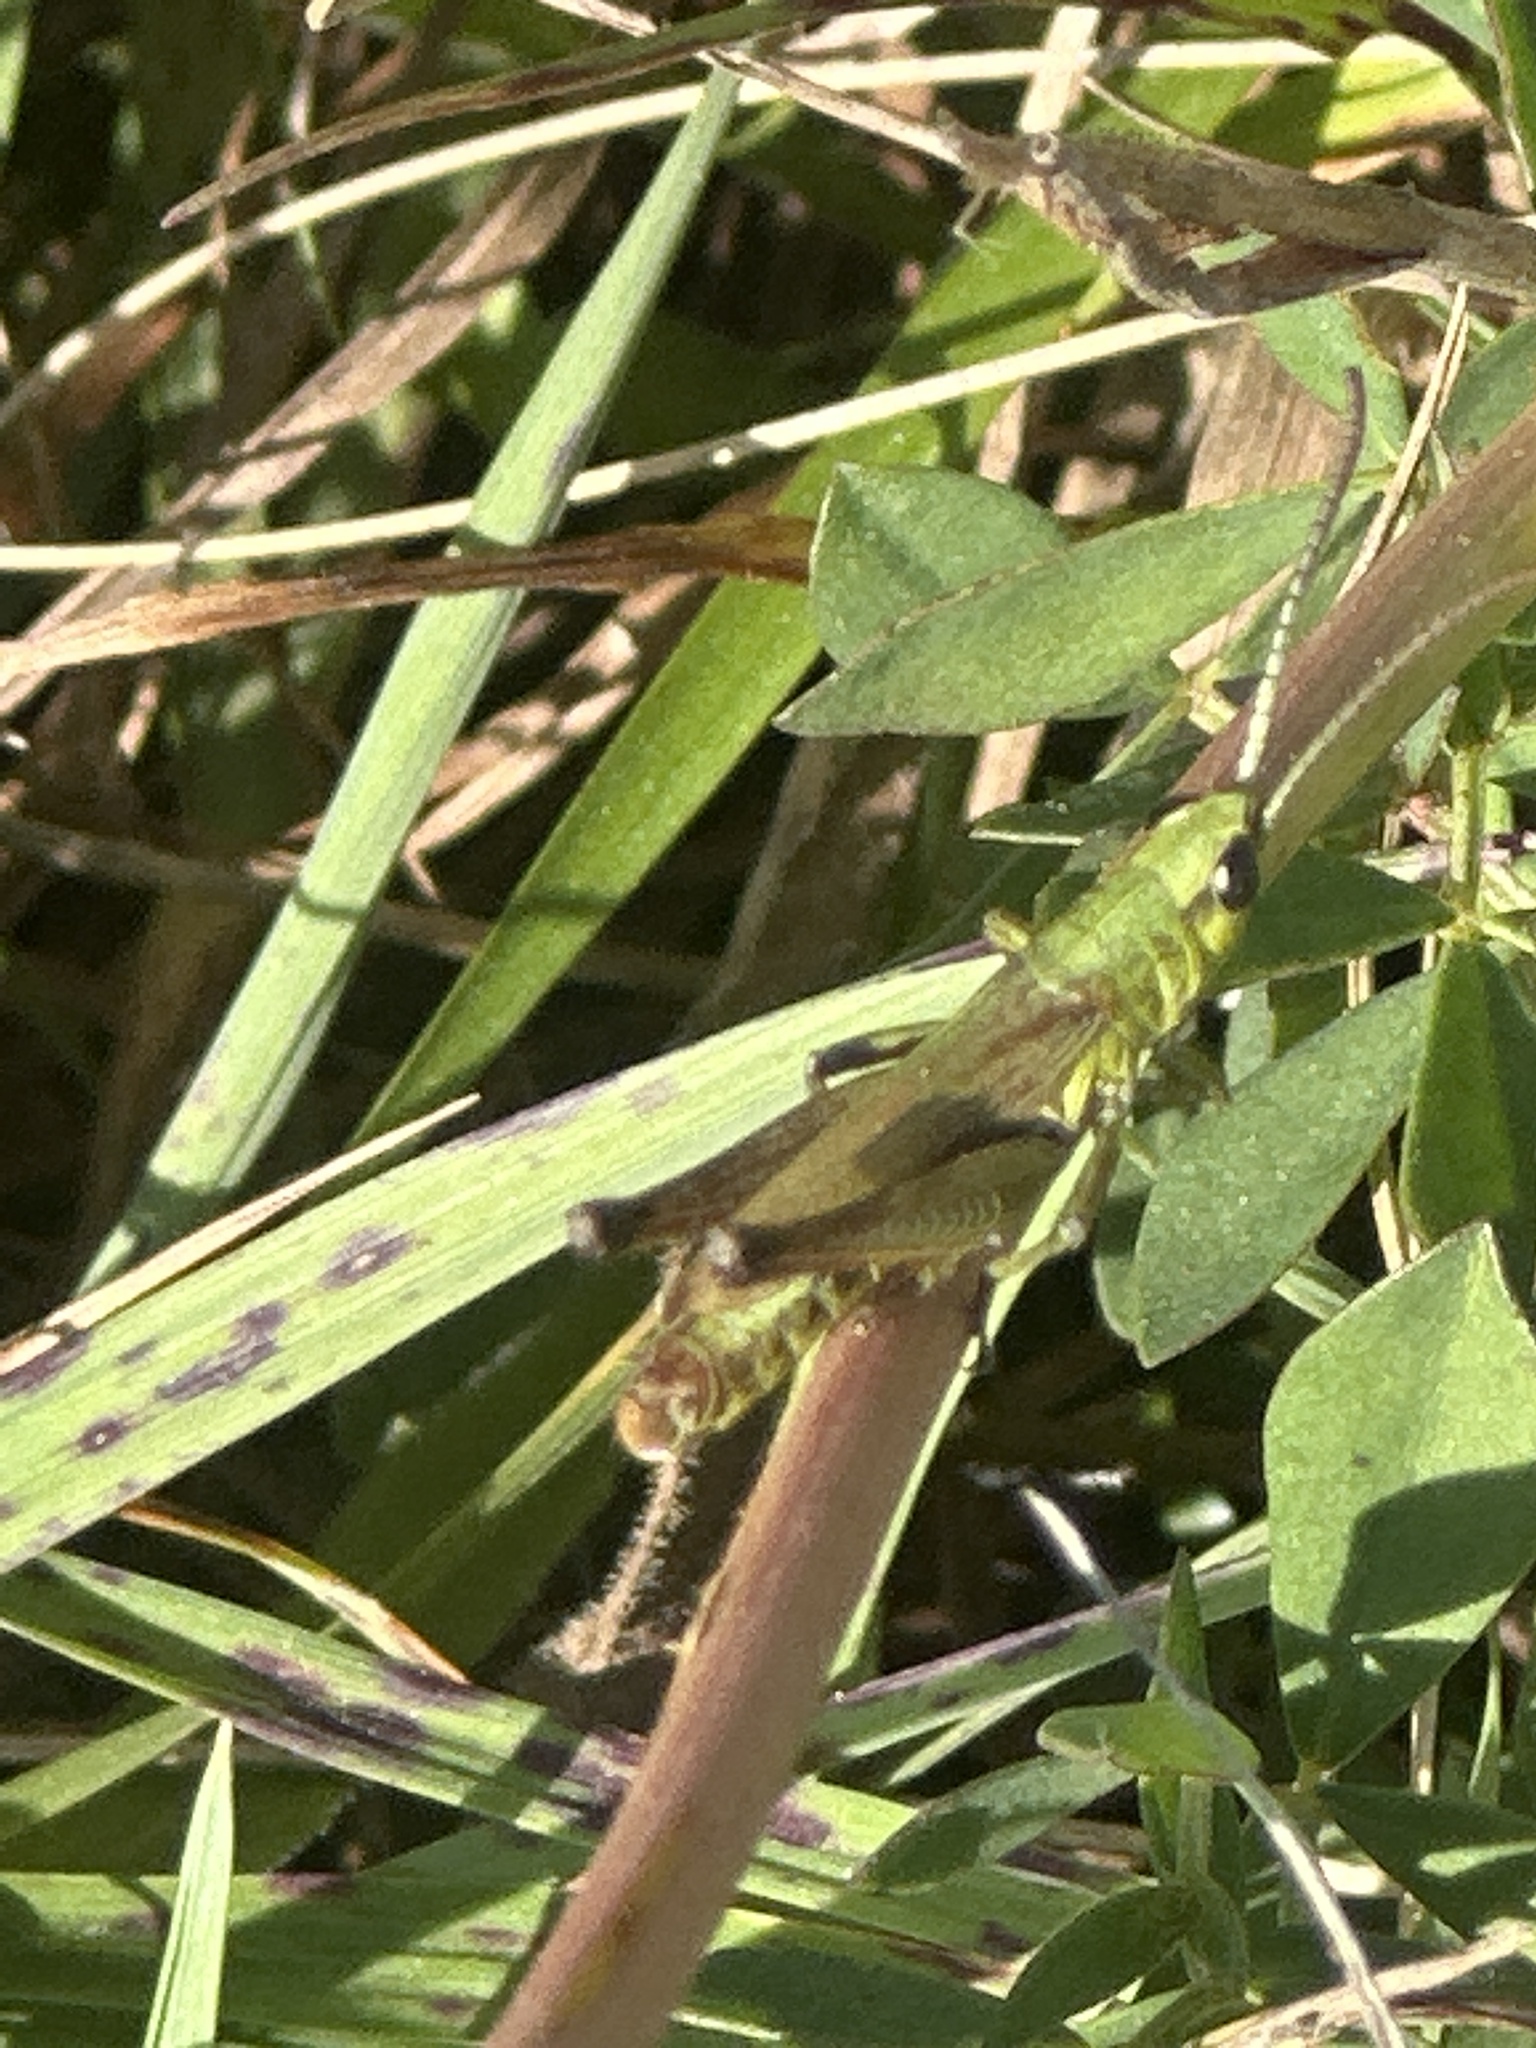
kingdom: Animalia
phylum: Arthropoda
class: Insecta
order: Orthoptera
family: Acrididae
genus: Pseudochorthippus
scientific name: Pseudochorthippus parallelus
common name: Meadow grasshopper
